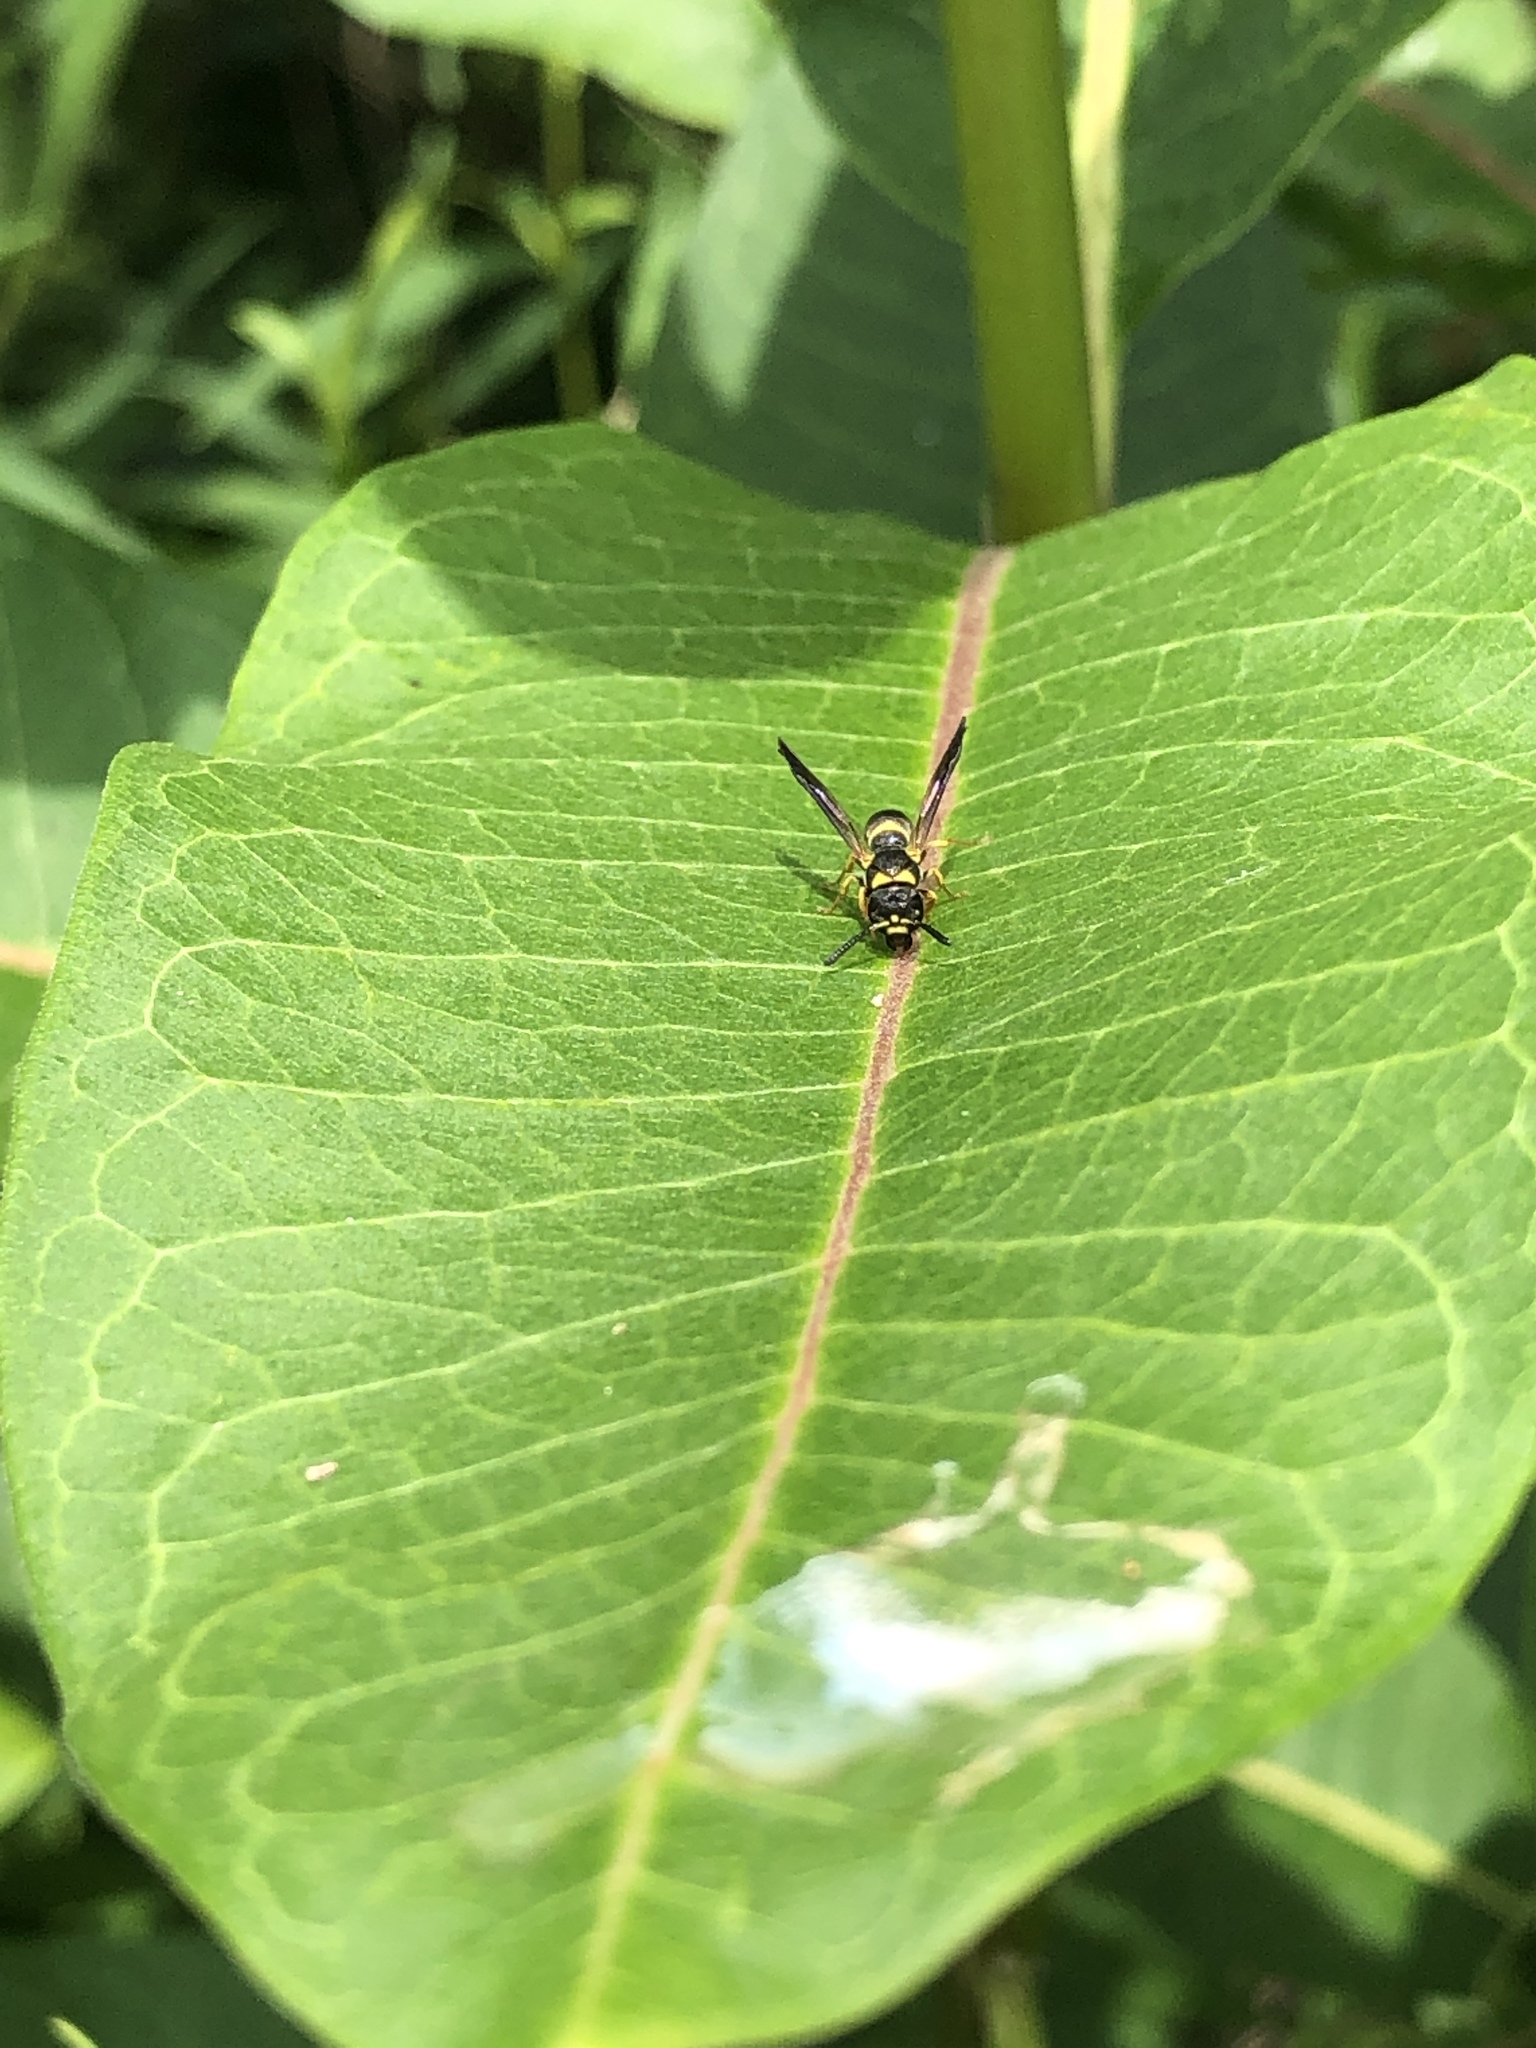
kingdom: Animalia
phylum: Arthropoda
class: Insecta
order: Hymenoptera
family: Eumenidae
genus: Parancistrocerus
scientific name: Parancistrocerus
